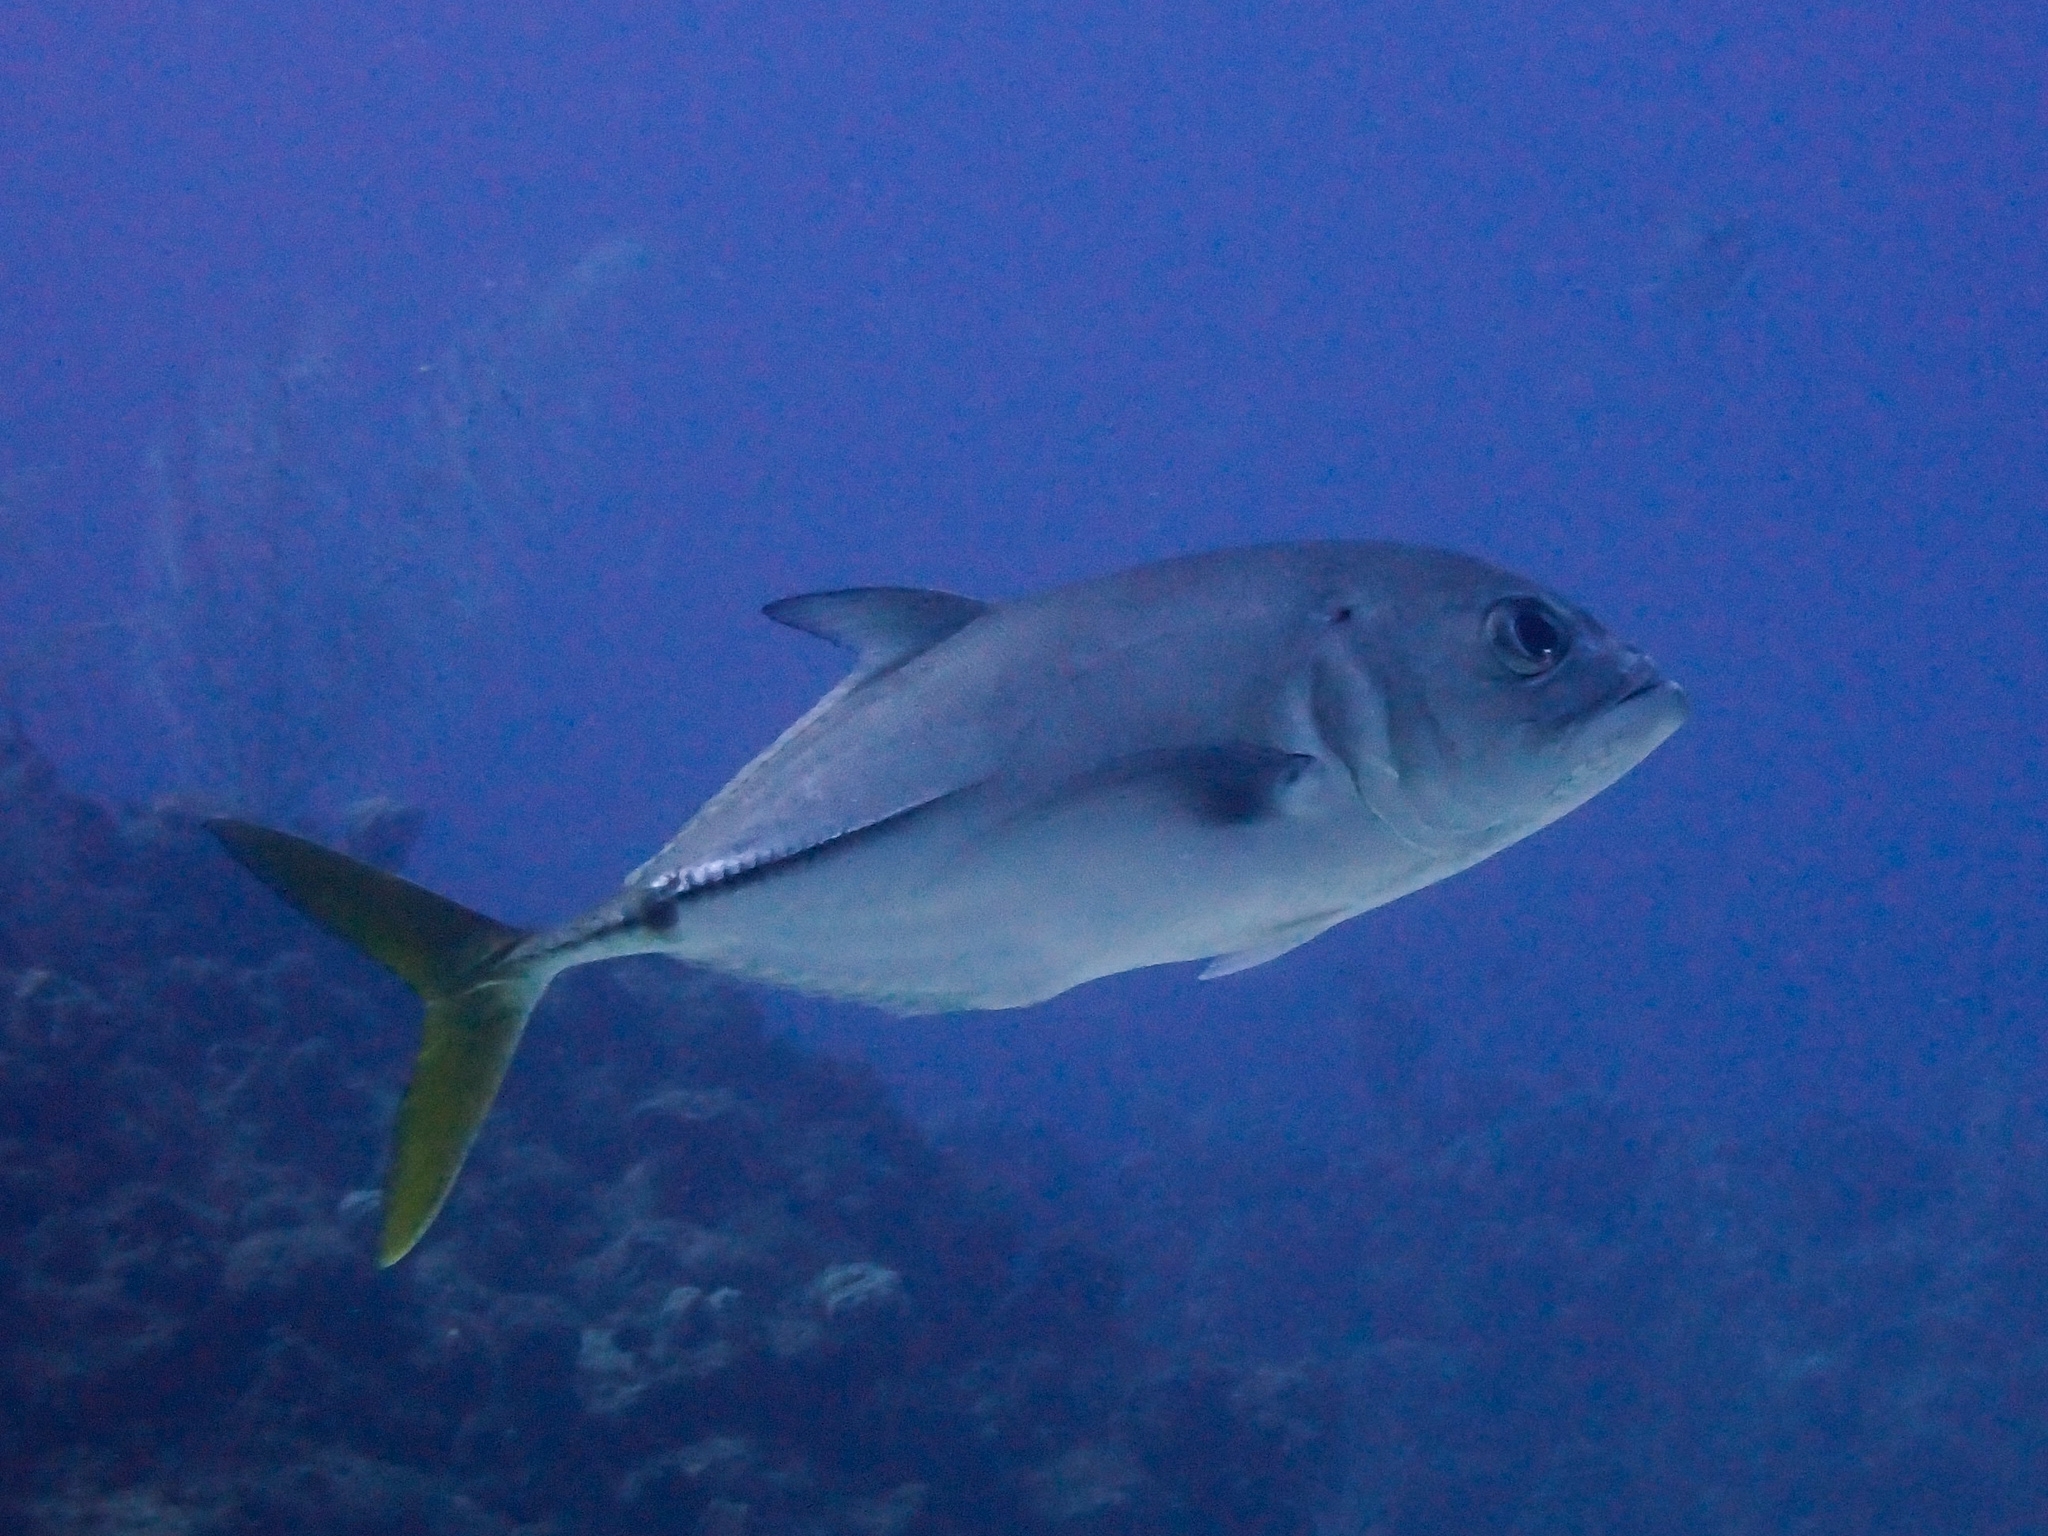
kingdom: Animalia
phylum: Chordata
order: Perciformes
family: Carangidae
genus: Caranx
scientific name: Caranx latus
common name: Horse eye jack
